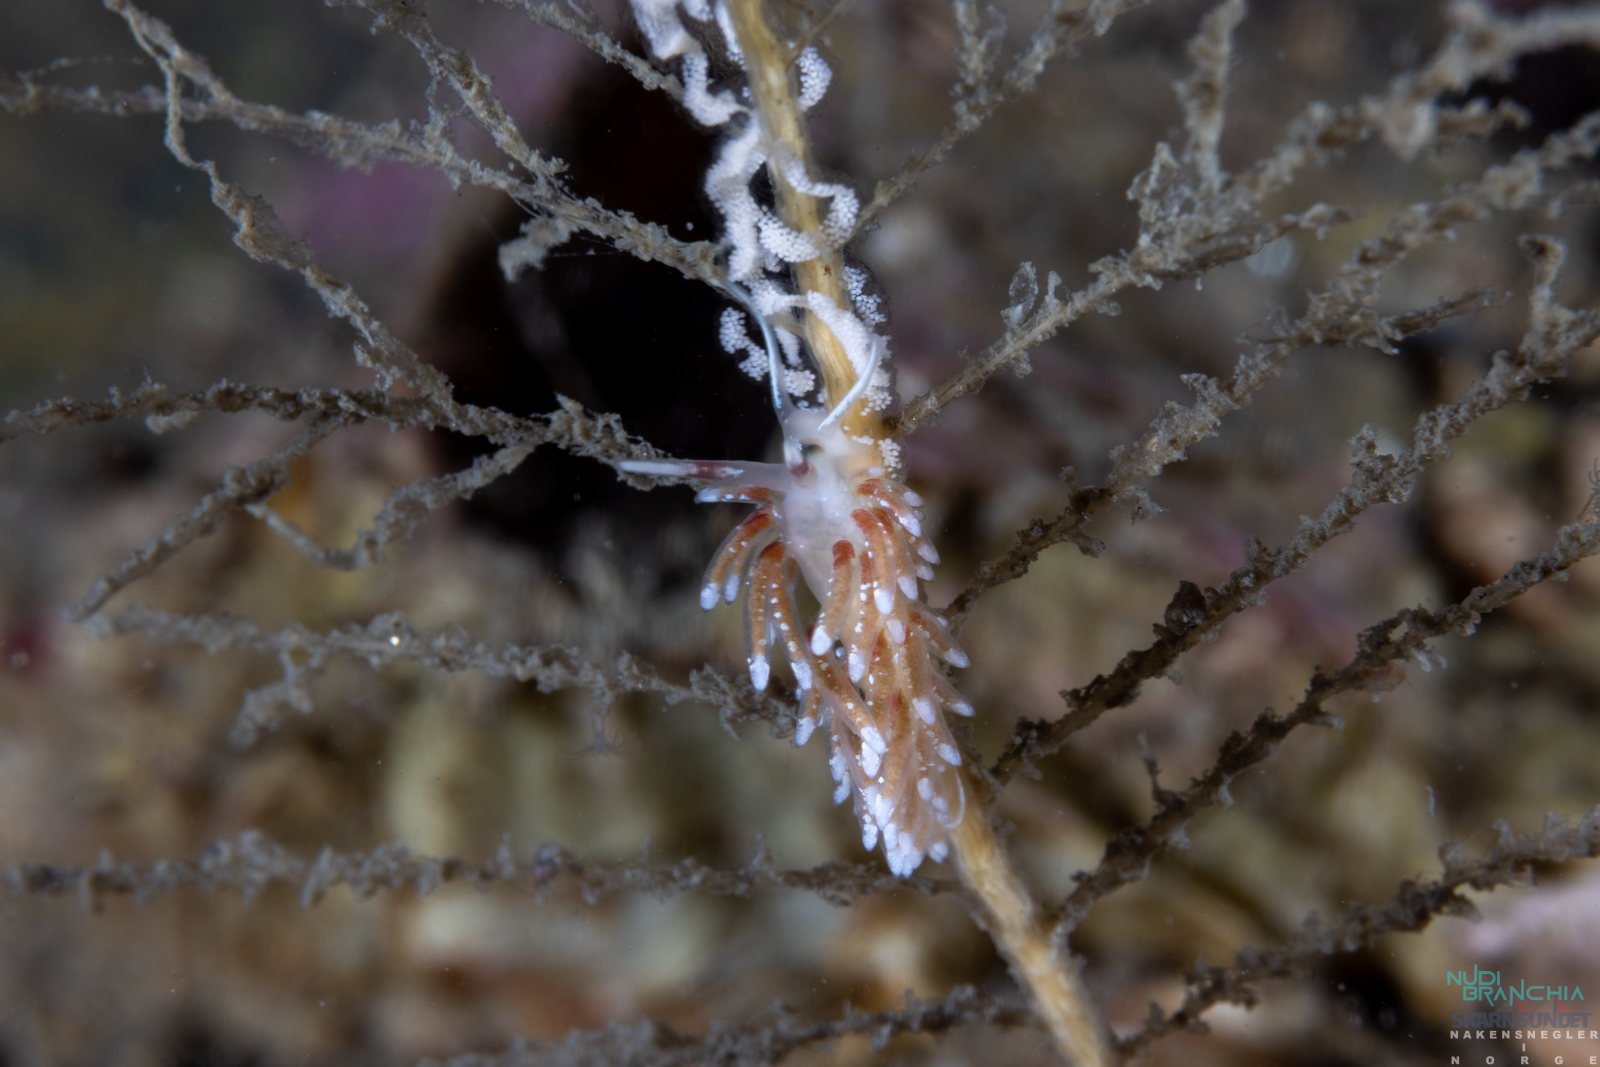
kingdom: Animalia
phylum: Mollusca
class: Gastropoda
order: Nudibranchia
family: Trinchesiidae
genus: Rubramoena
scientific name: Rubramoena rubescens
